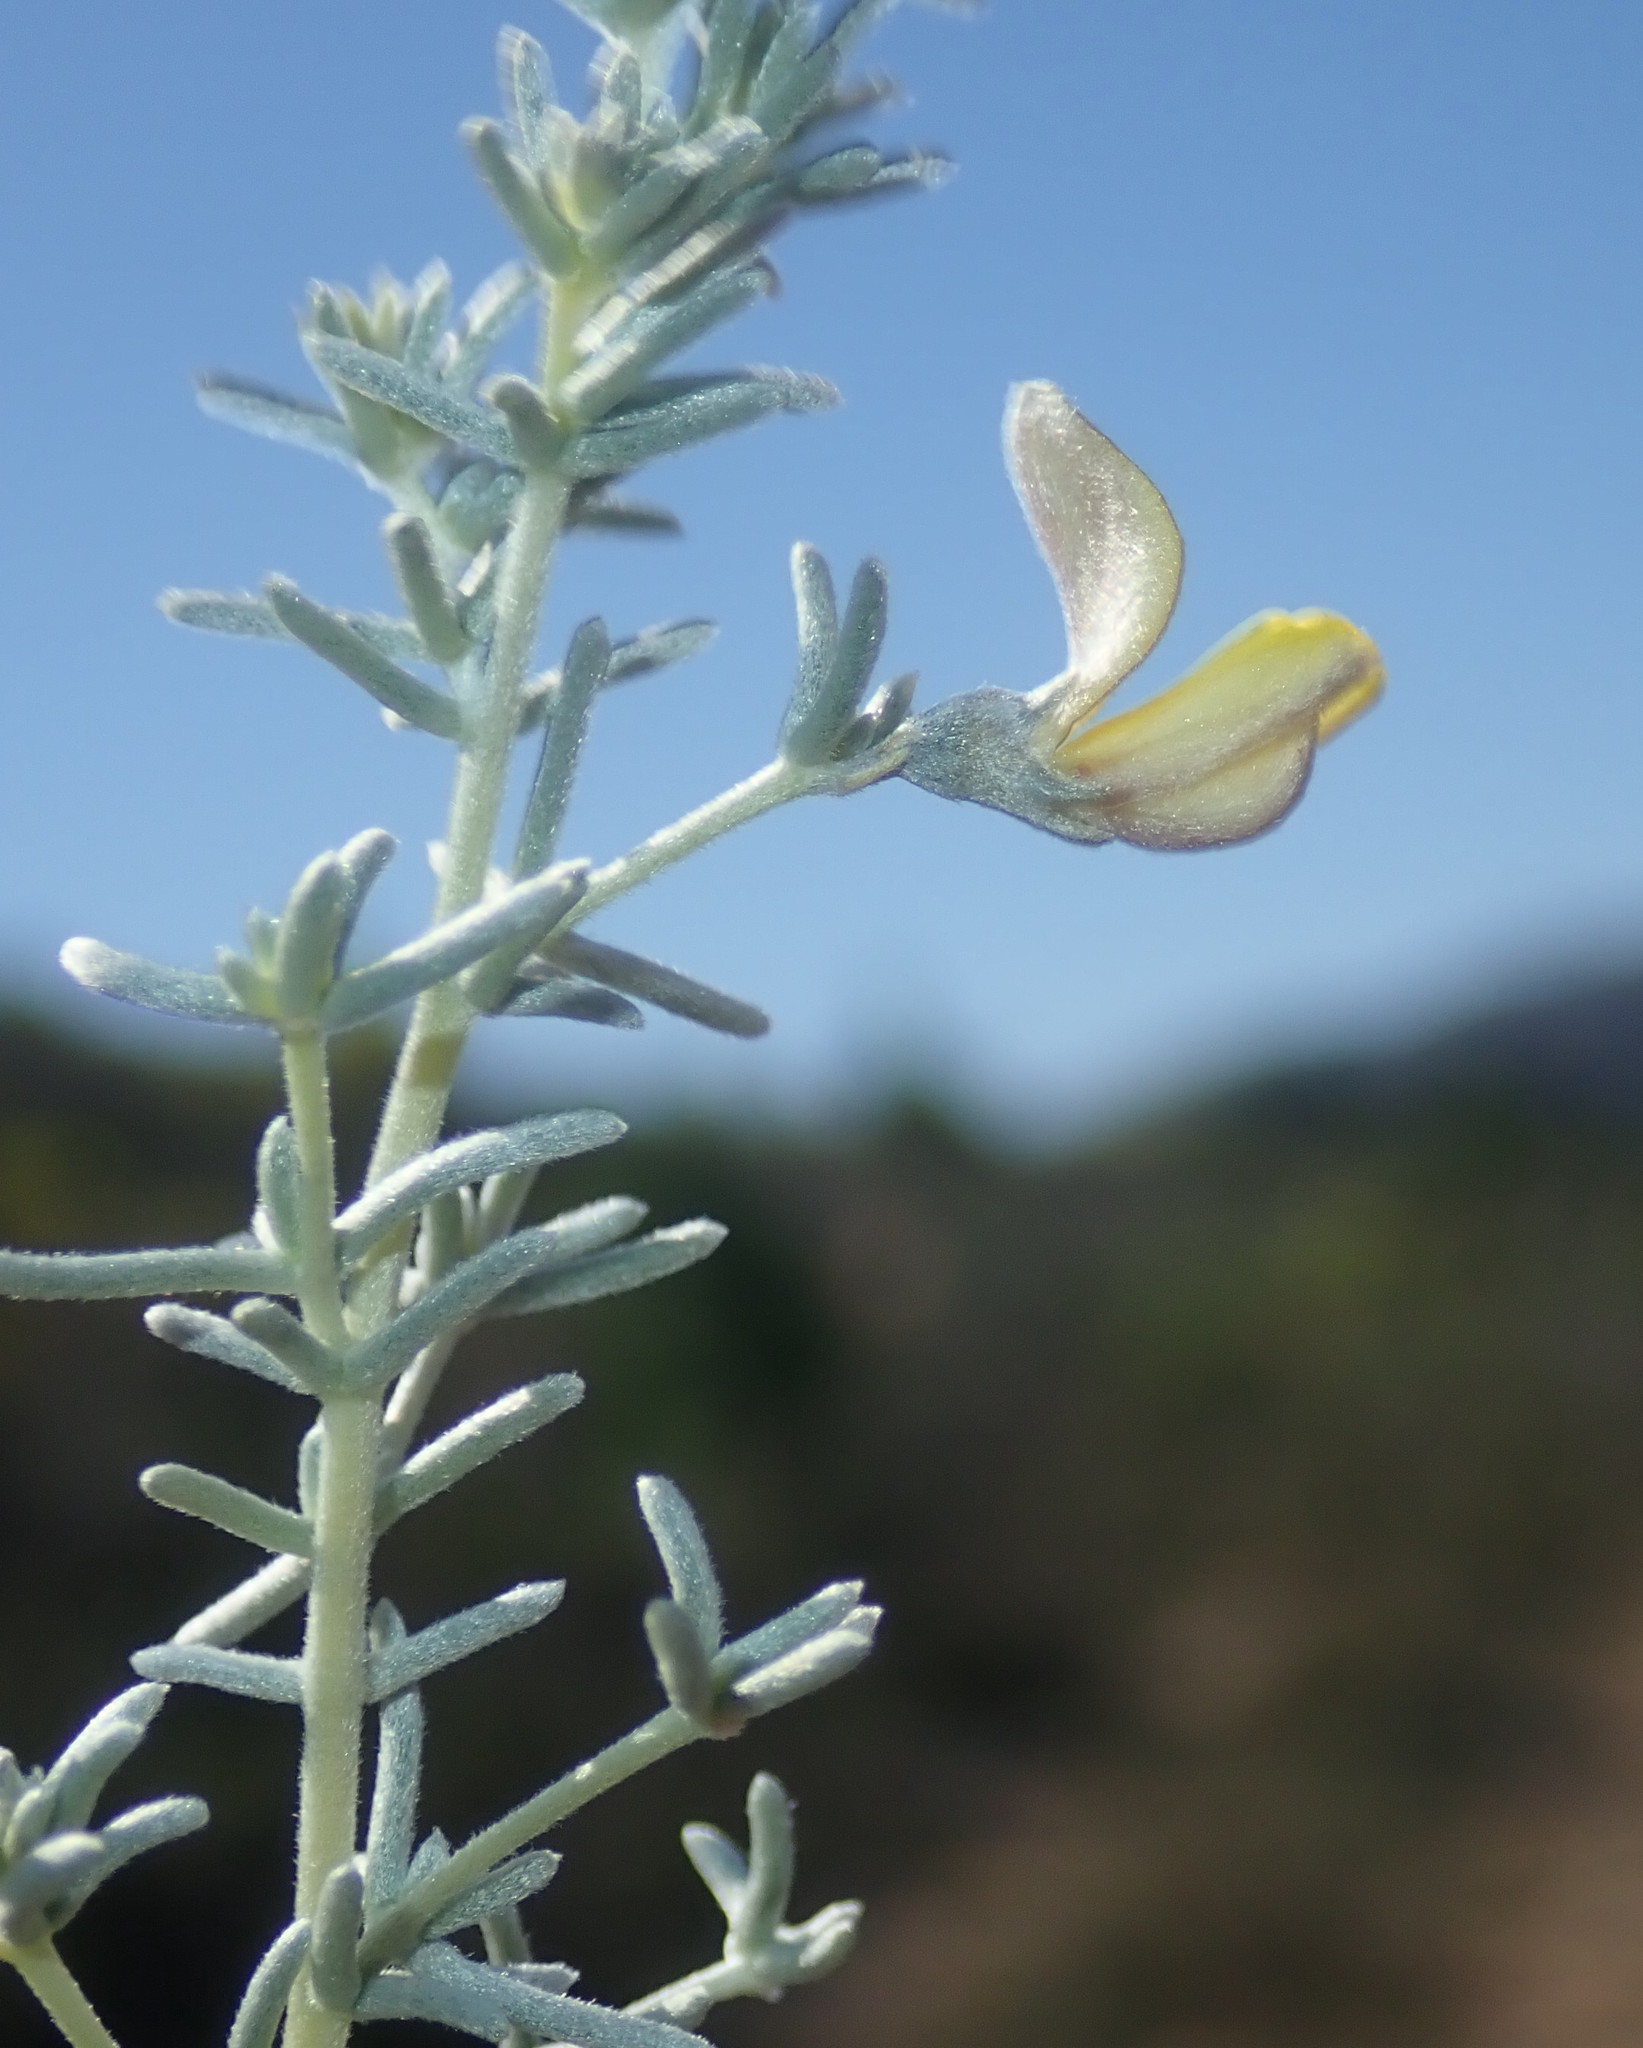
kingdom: Plantae
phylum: Tracheophyta
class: Magnoliopsida
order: Fabales
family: Fabaceae
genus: Aspalathus
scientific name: Aspalathus pedunculata
